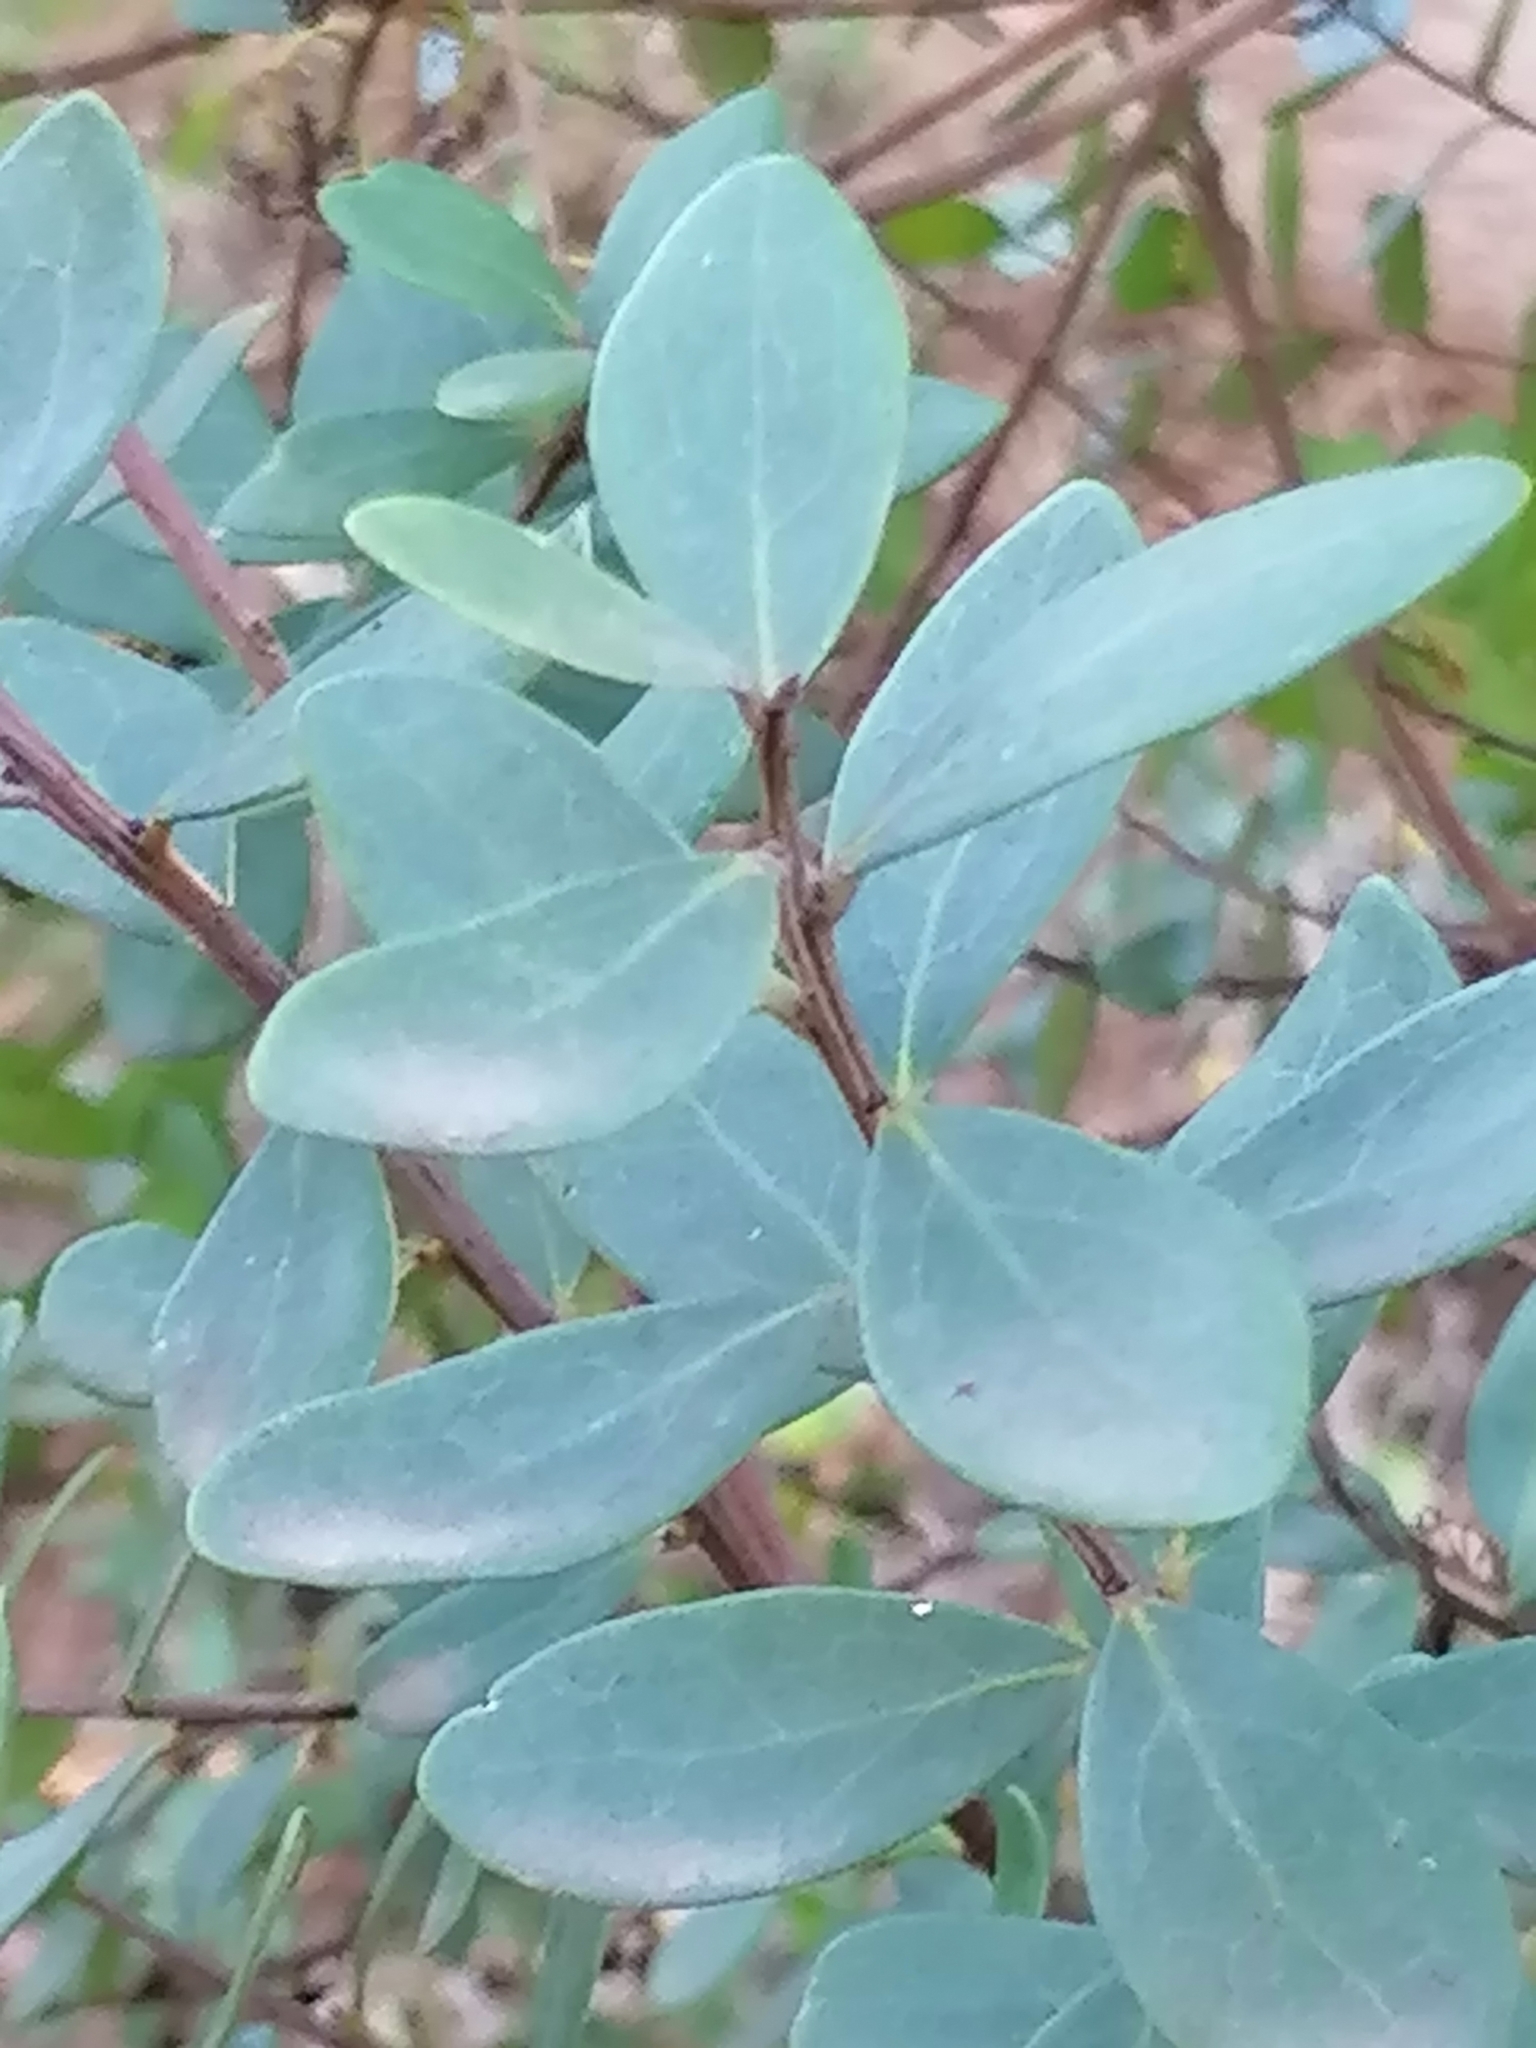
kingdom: Plantae
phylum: Tracheophyta
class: Magnoliopsida
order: Ericales
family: Ebenaceae
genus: Euclea
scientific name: Euclea racemosa
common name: Dune guarri
